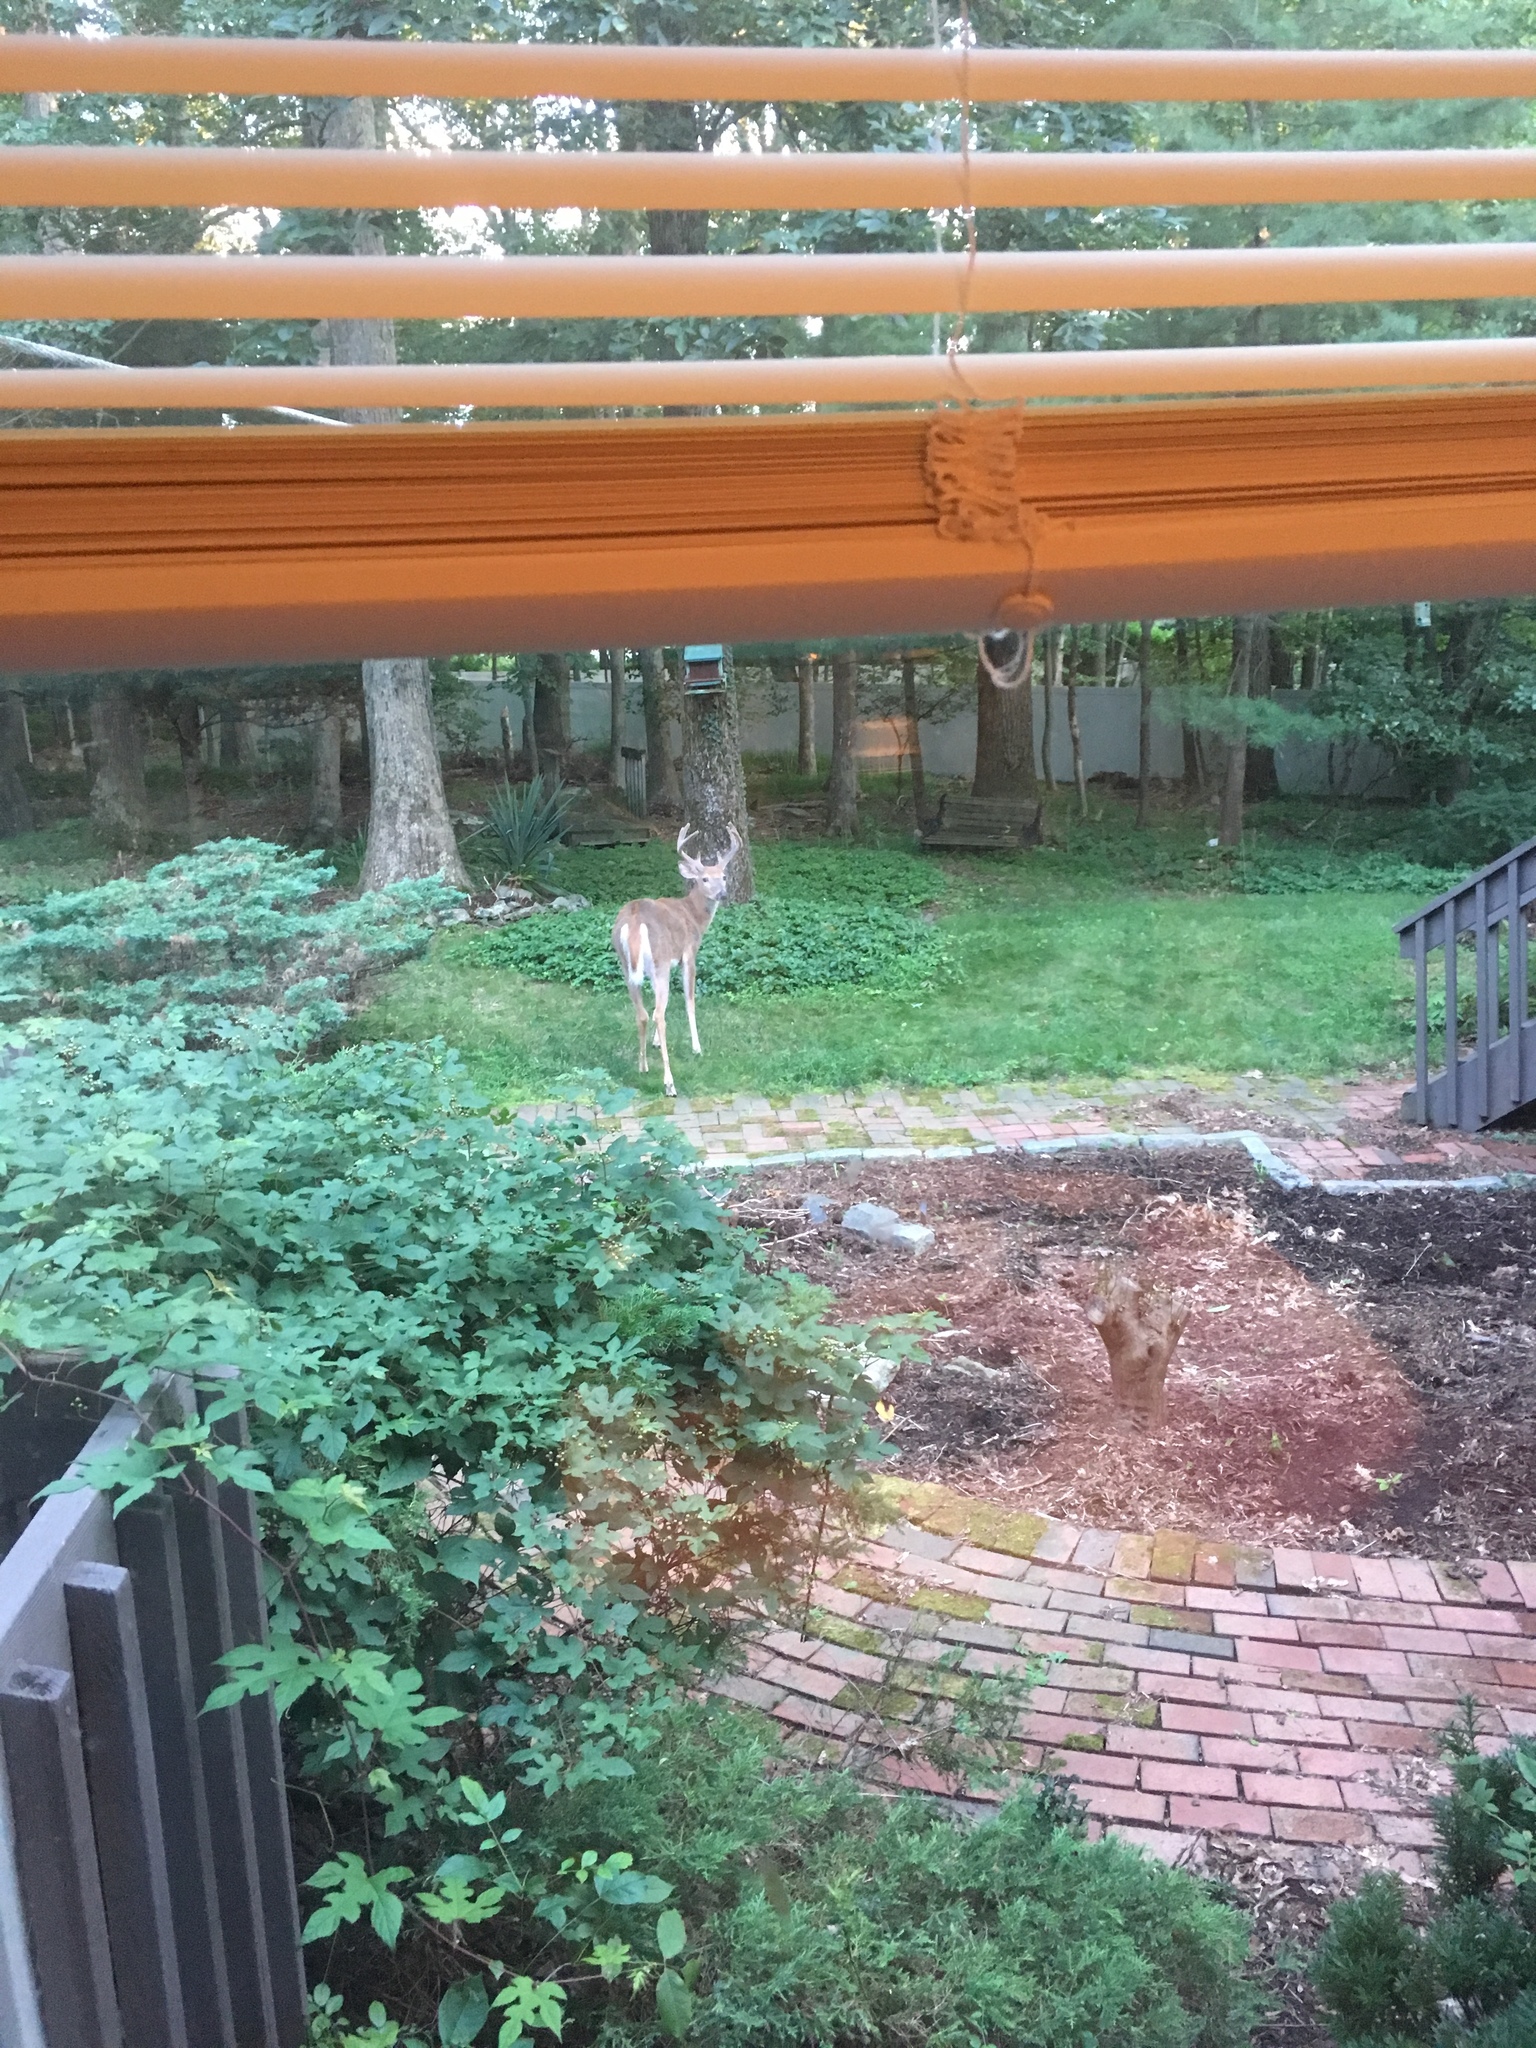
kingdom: Animalia
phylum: Chordata
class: Mammalia
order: Artiodactyla
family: Cervidae
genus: Odocoileus
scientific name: Odocoileus virginianus
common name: White-tailed deer
